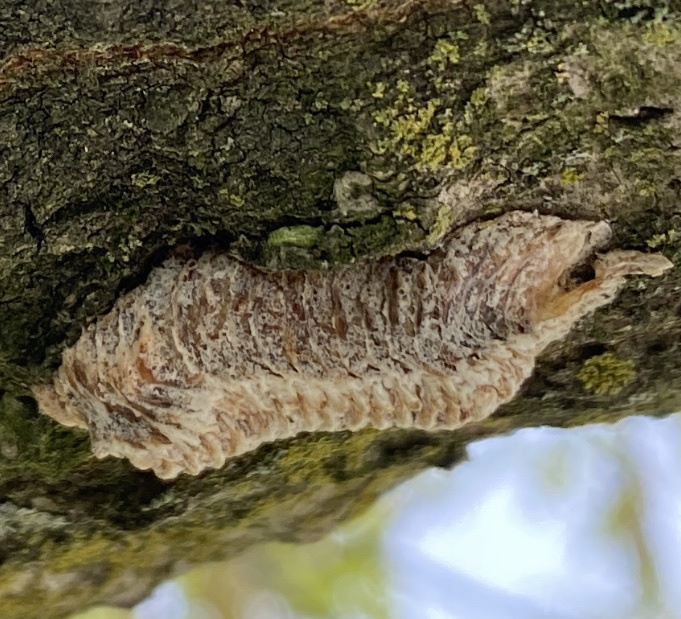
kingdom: Animalia
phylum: Arthropoda
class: Insecta
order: Mantodea
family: Mantidae
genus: Stagmomantis
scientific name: Stagmomantis carolina
